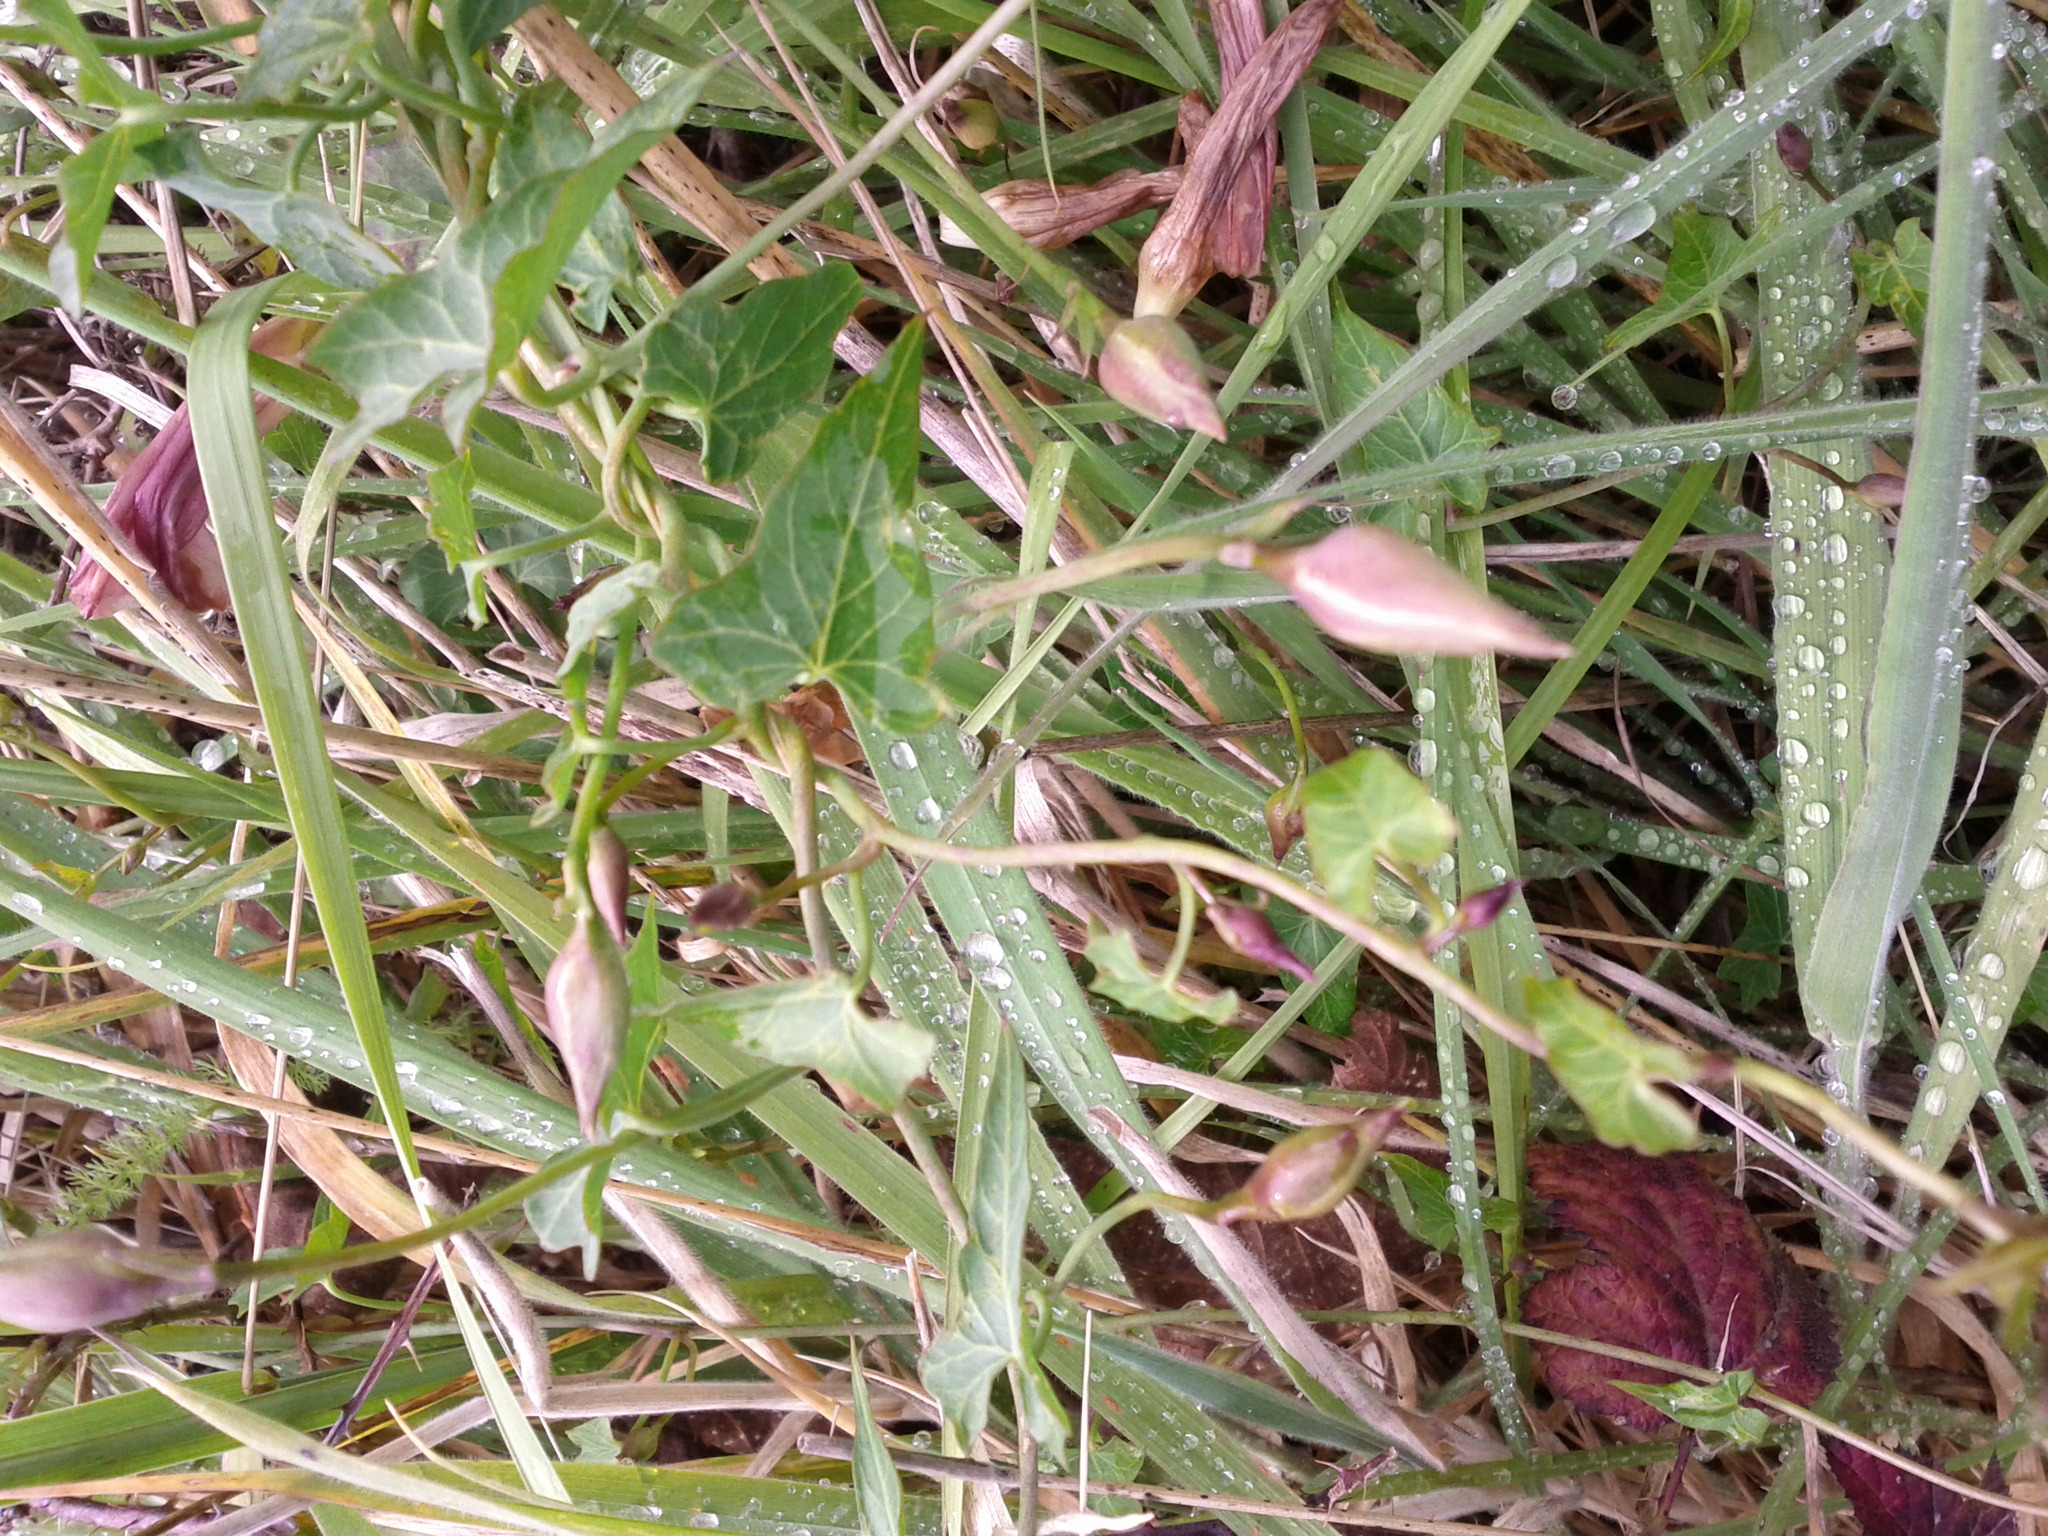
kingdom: Plantae
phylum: Tracheophyta
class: Magnoliopsida
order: Solanales
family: Convolvulaceae
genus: Calystegia
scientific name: Calystegia purpurata
